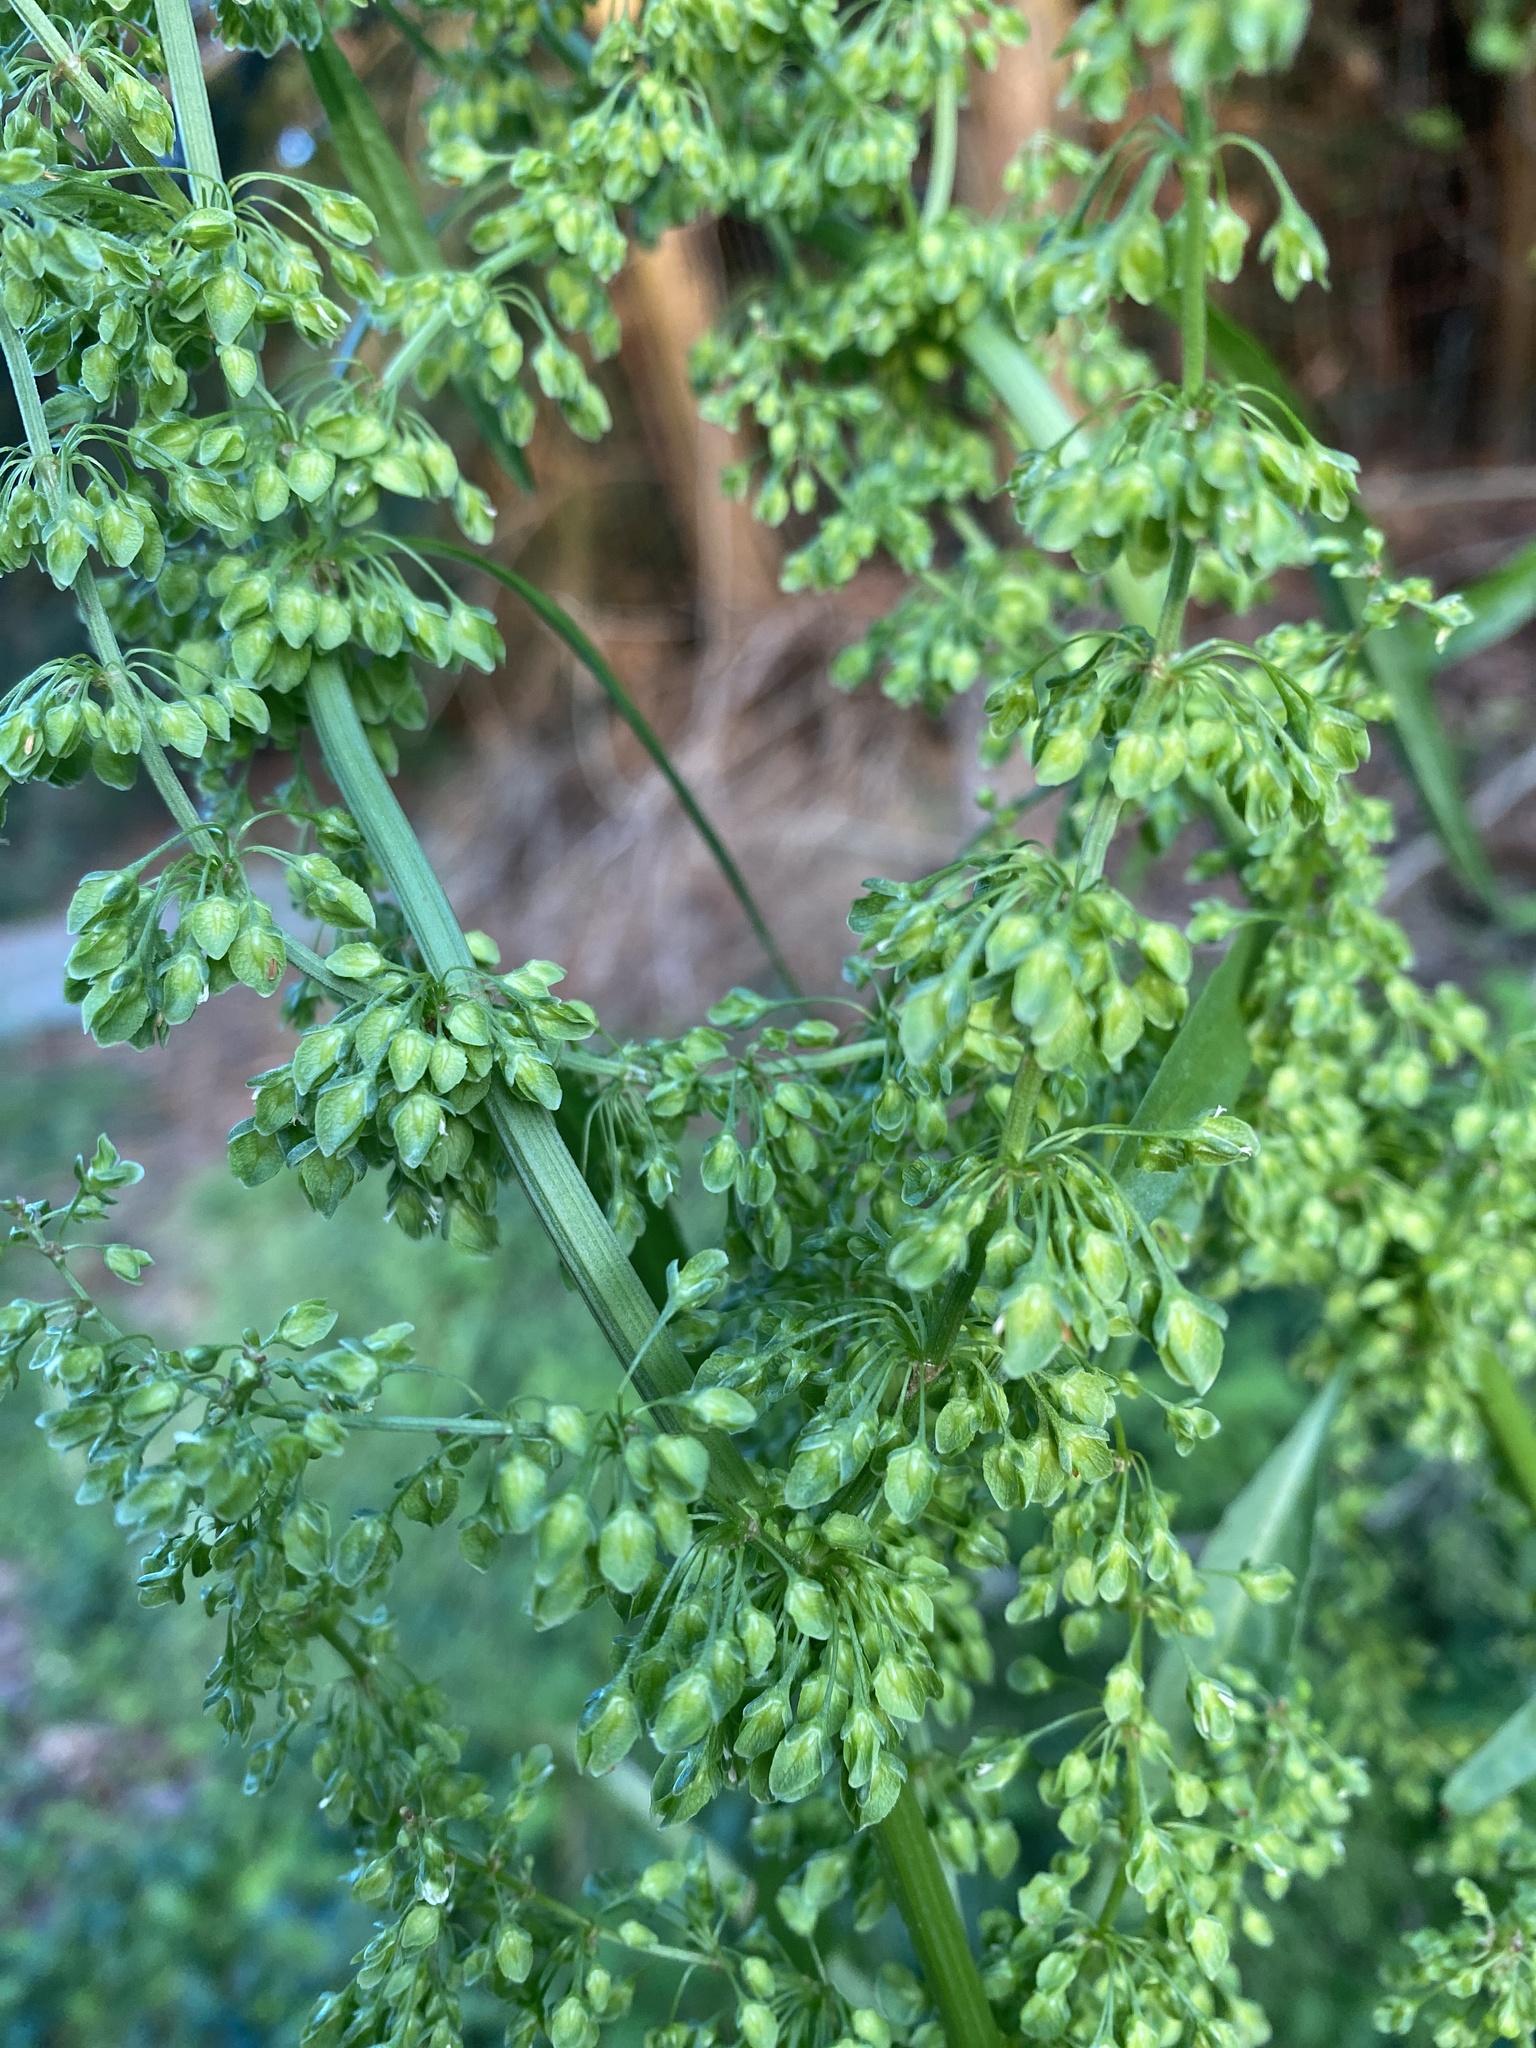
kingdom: Plantae
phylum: Tracheophyta
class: Magnoliopsida
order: Caryophyllales
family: Polygonaceae
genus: Rumex
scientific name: Rumex crispus
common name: Curled dock
